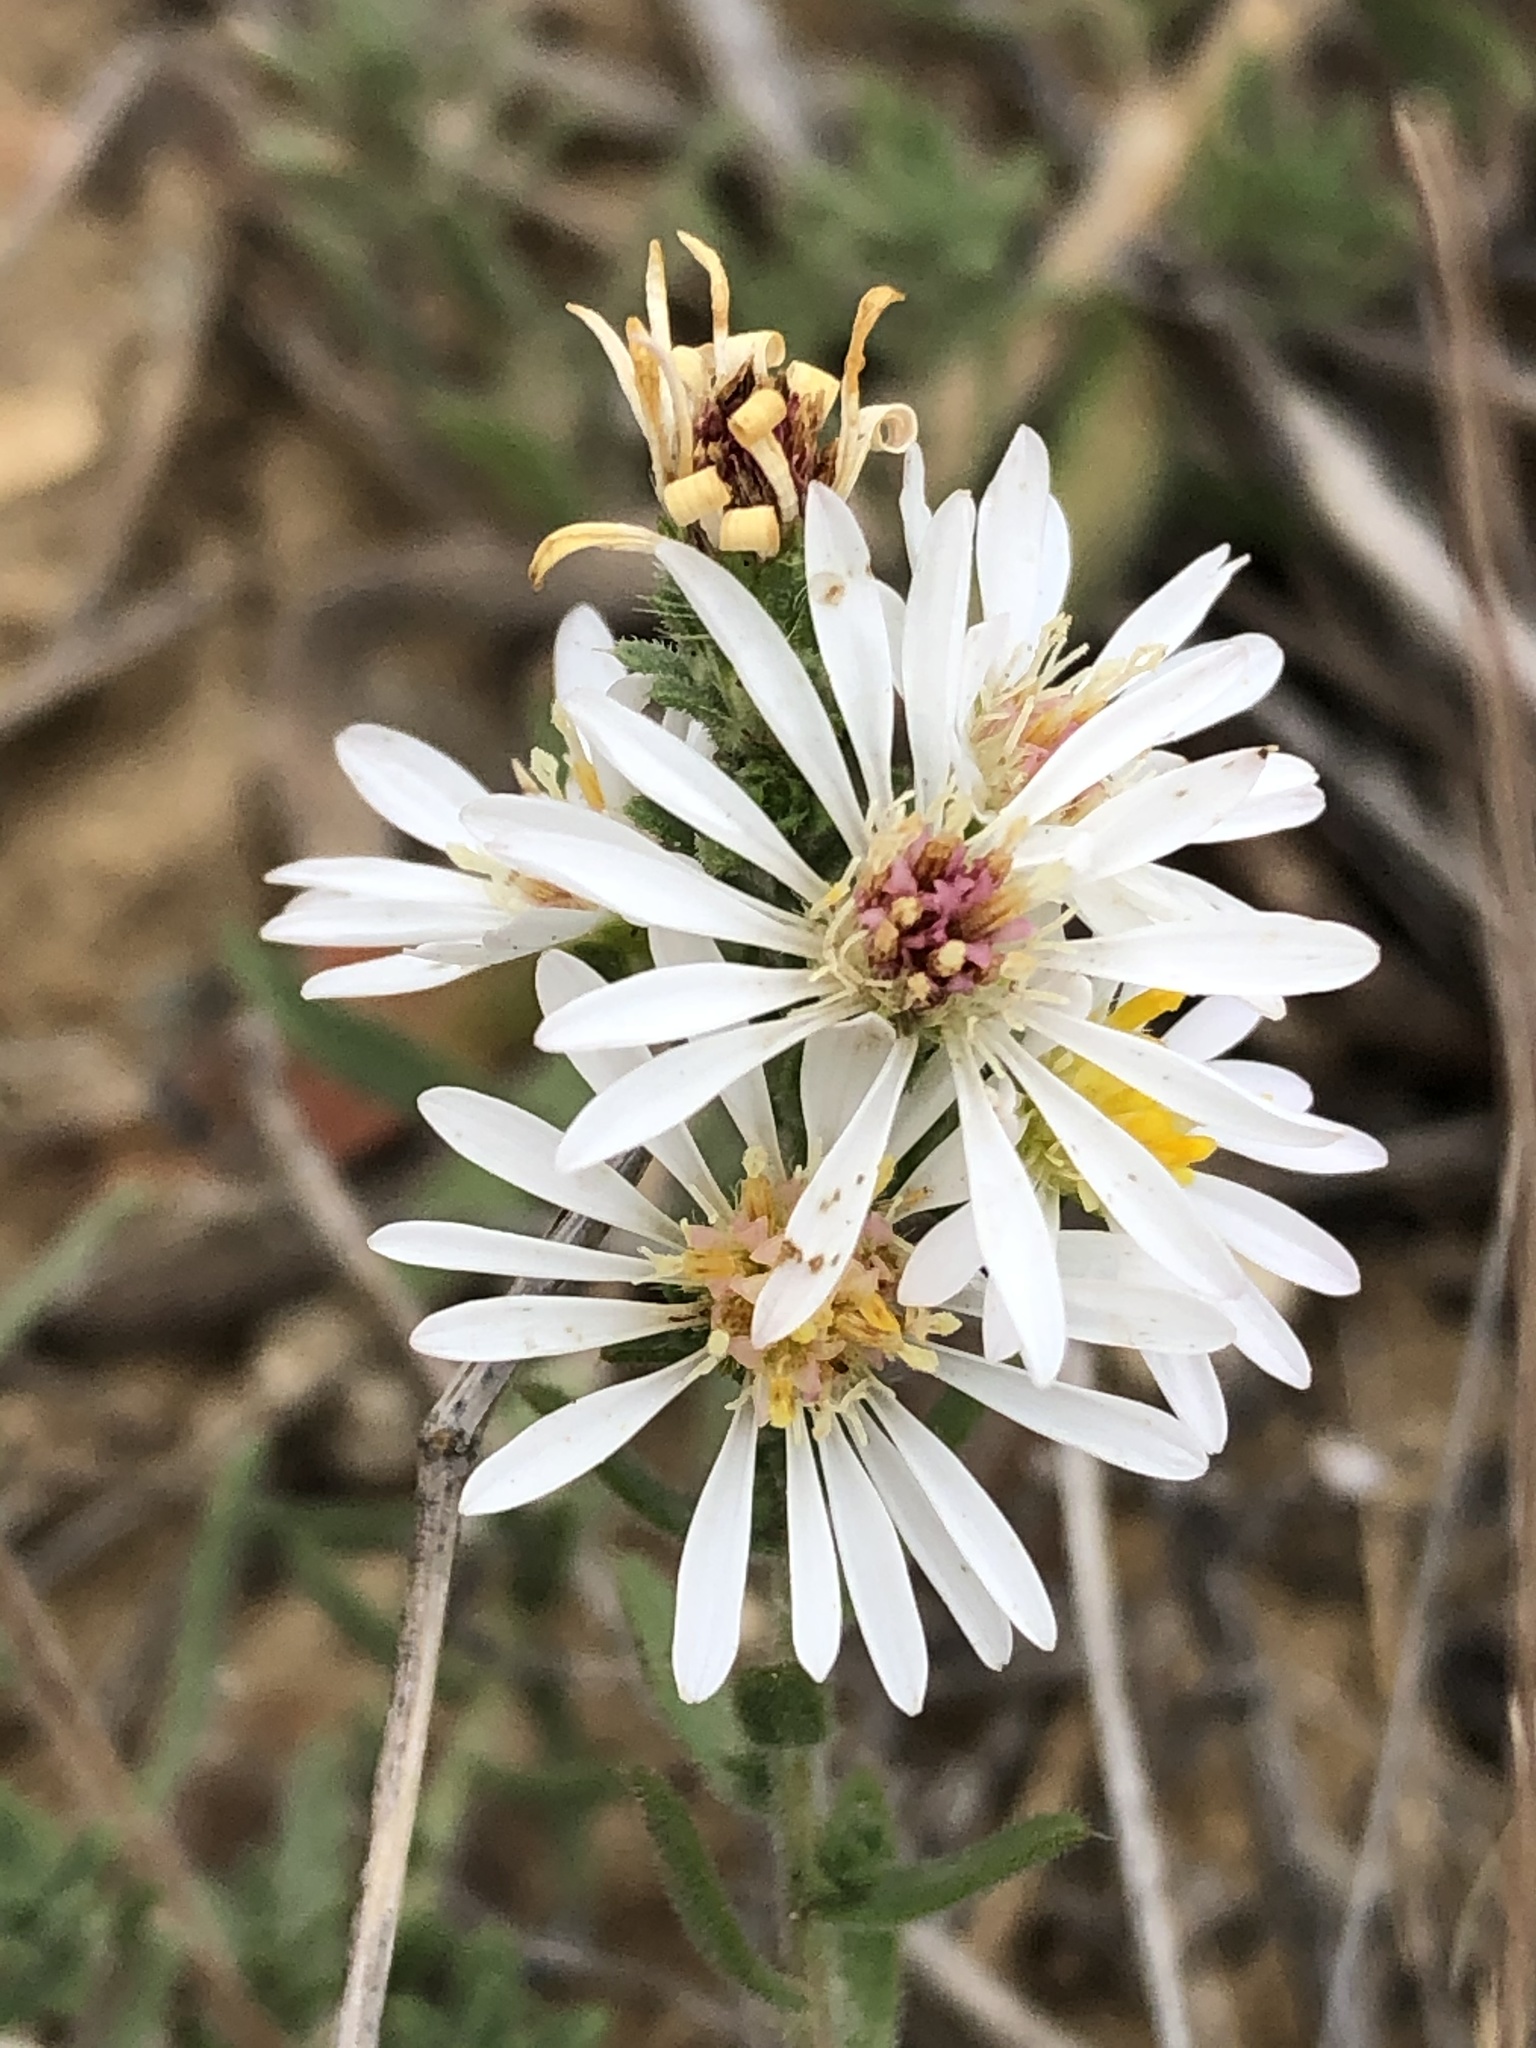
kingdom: Plantae
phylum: Tracheophyta
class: Magnoliopsida
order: Asterales
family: Asteraceae
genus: Symphyotrichum
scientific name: Symphyotrichum falcatum
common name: Creeping white prairie aster
